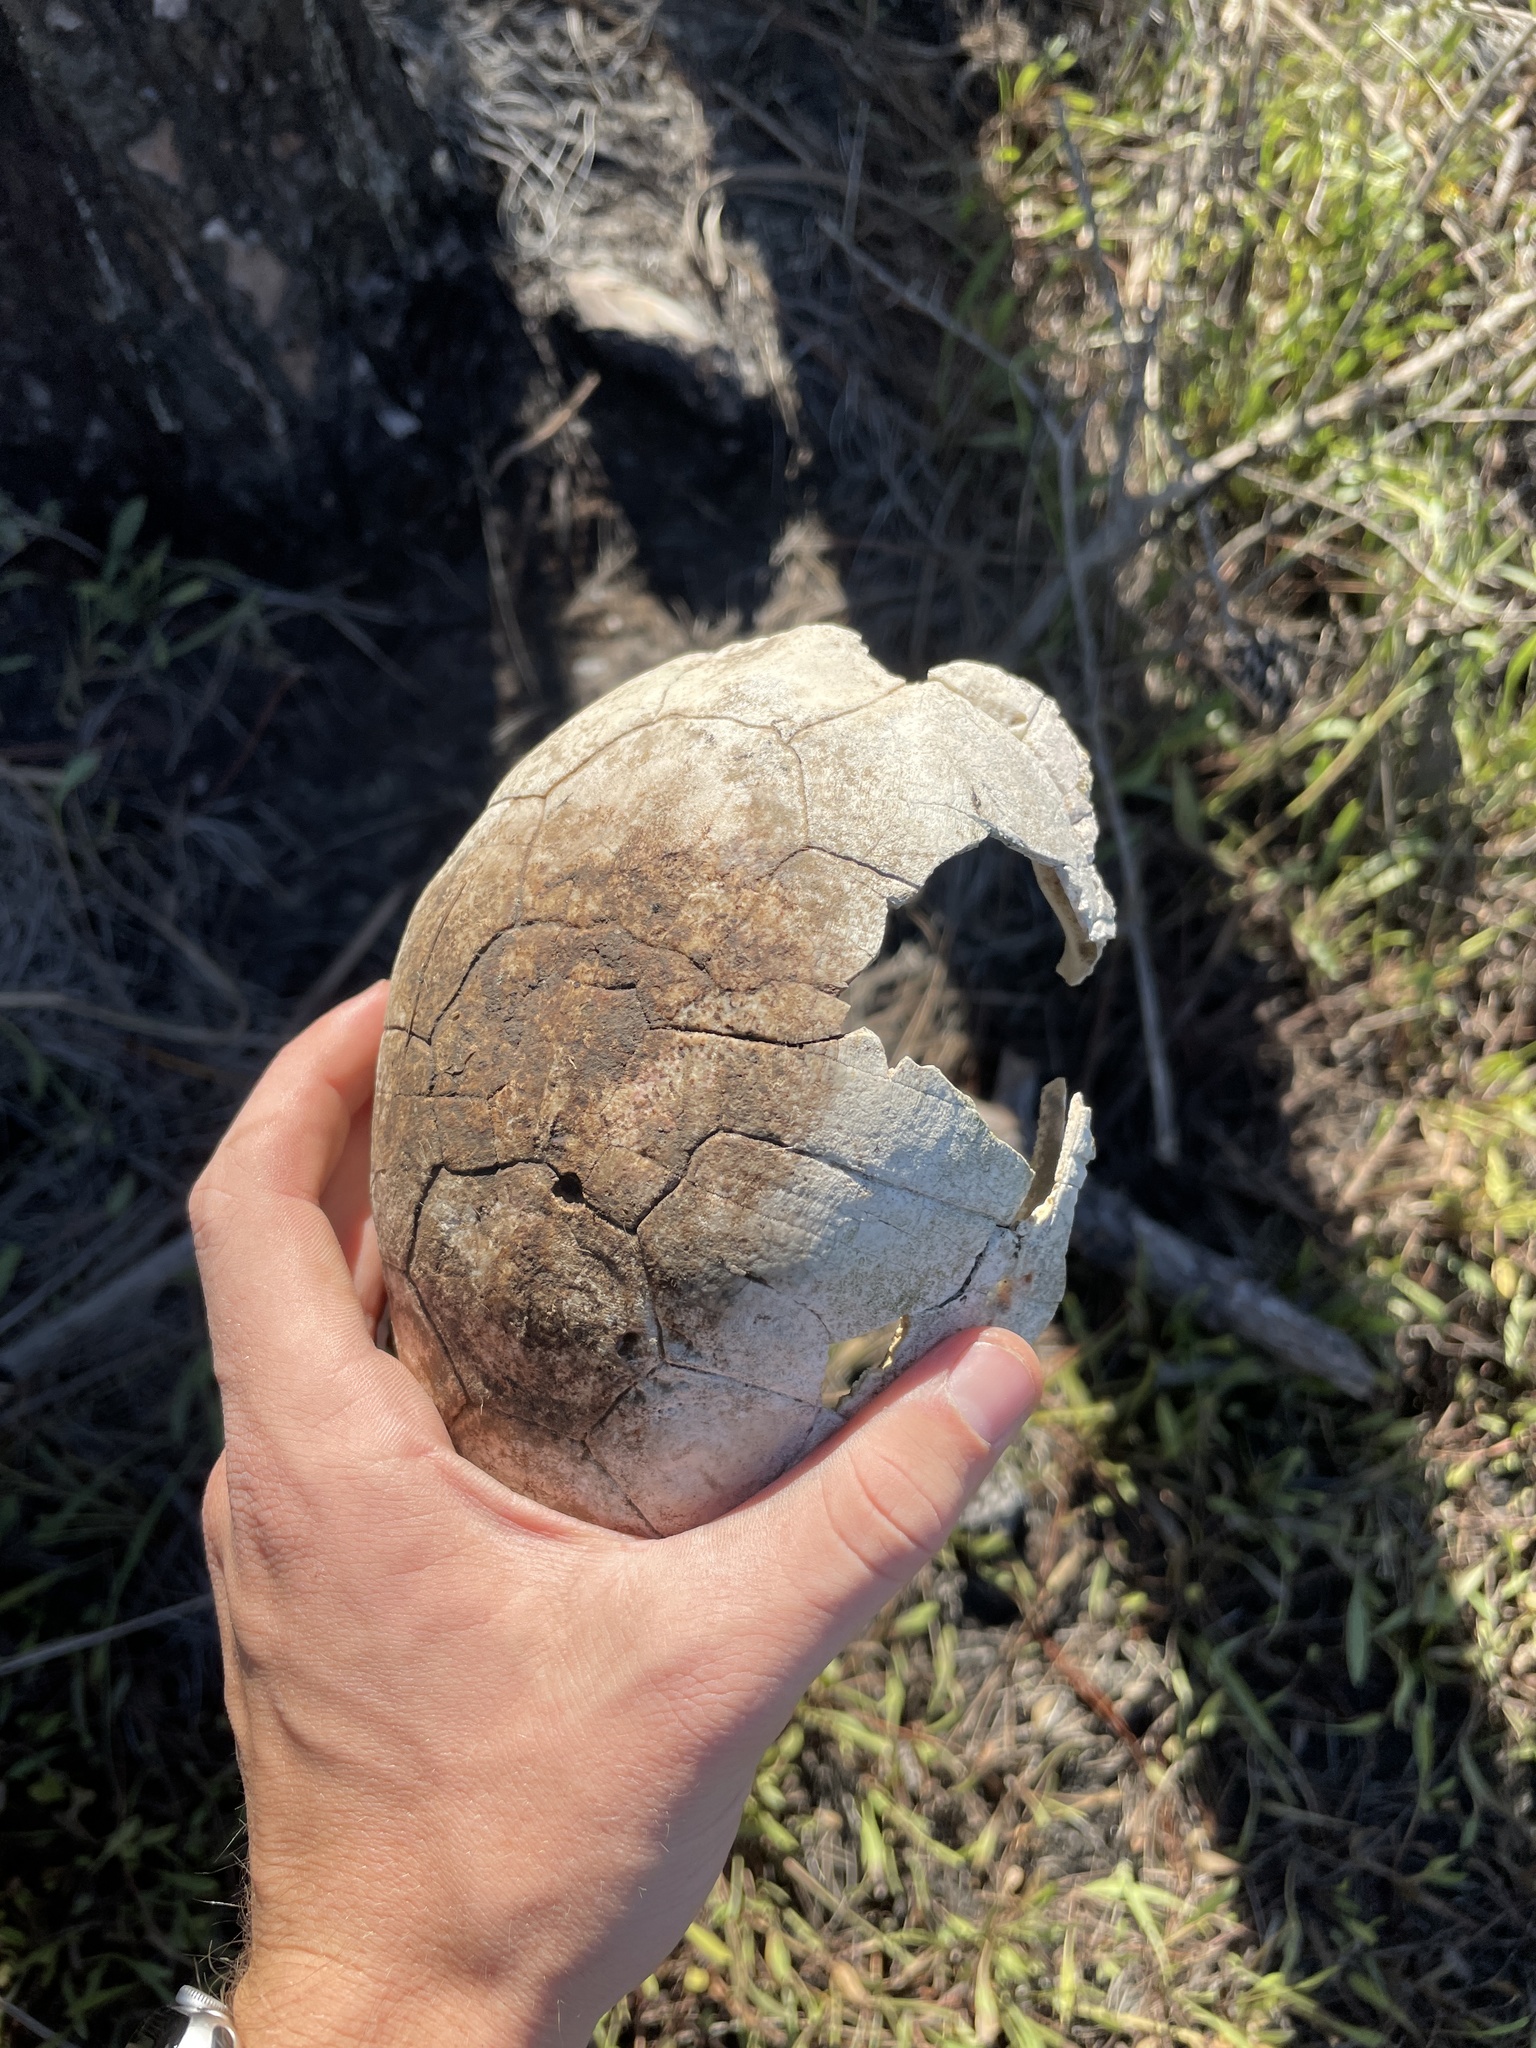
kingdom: Animalia
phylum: Chordata
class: Testudines
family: Emydidae
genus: Terrapene
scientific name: Terrapene carolina
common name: Common box turtle
